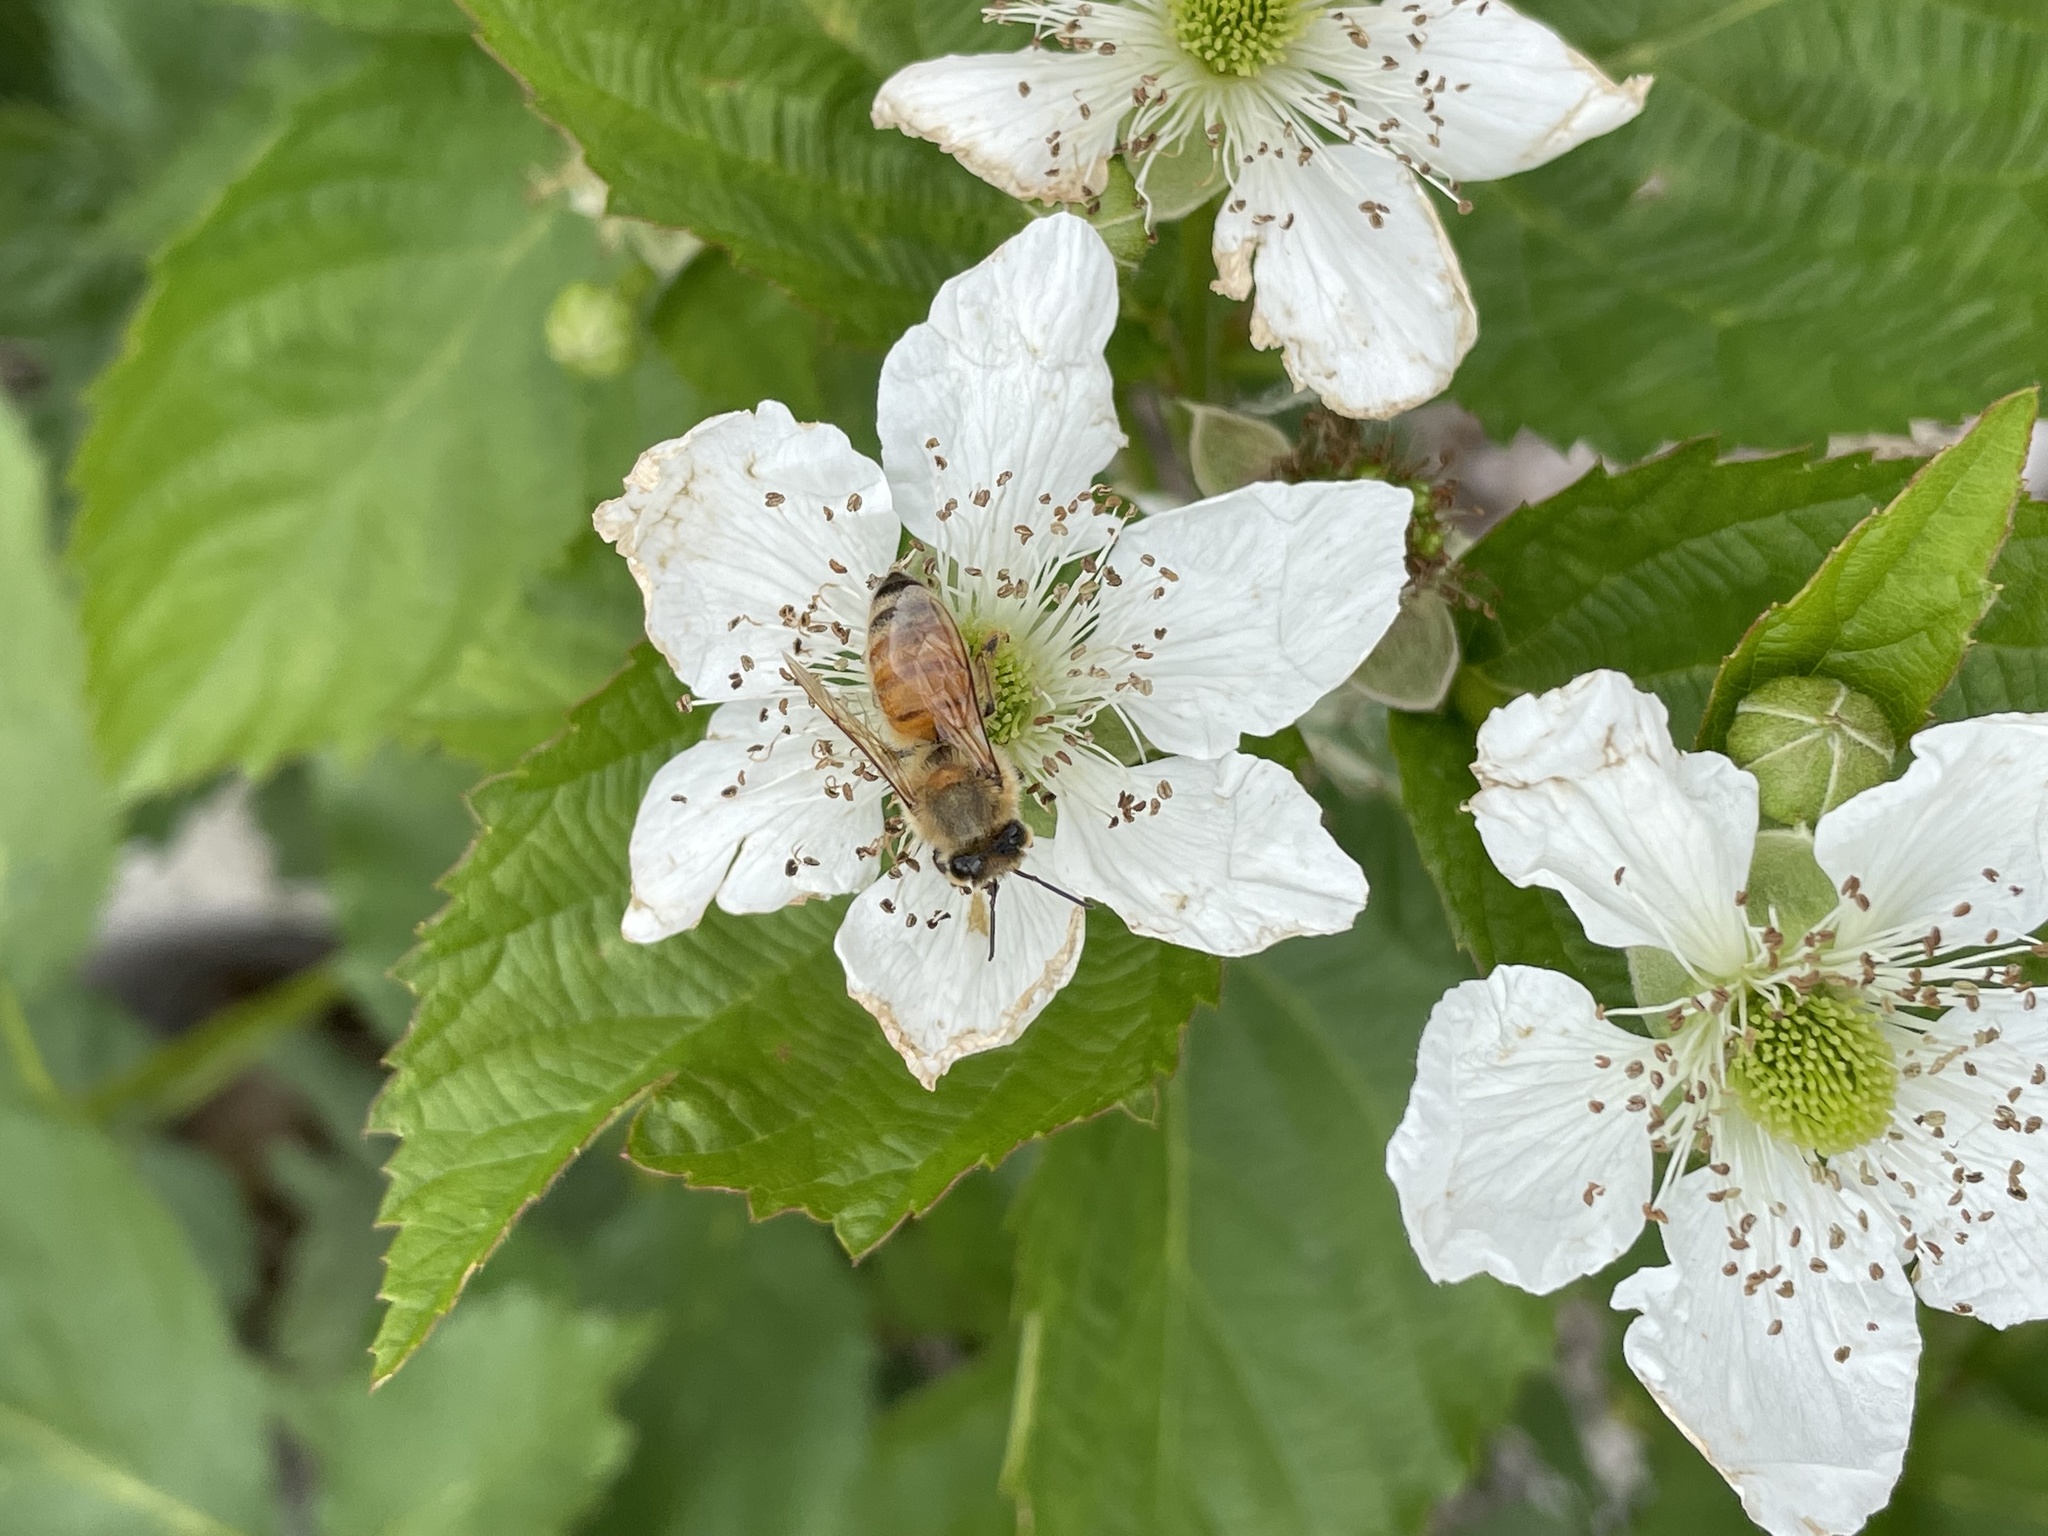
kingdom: Animalia
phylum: Arthropoda
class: Insecta
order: Hymenoptera
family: Apidae
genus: Apis
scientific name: Apis mellifera
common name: Honey bee
